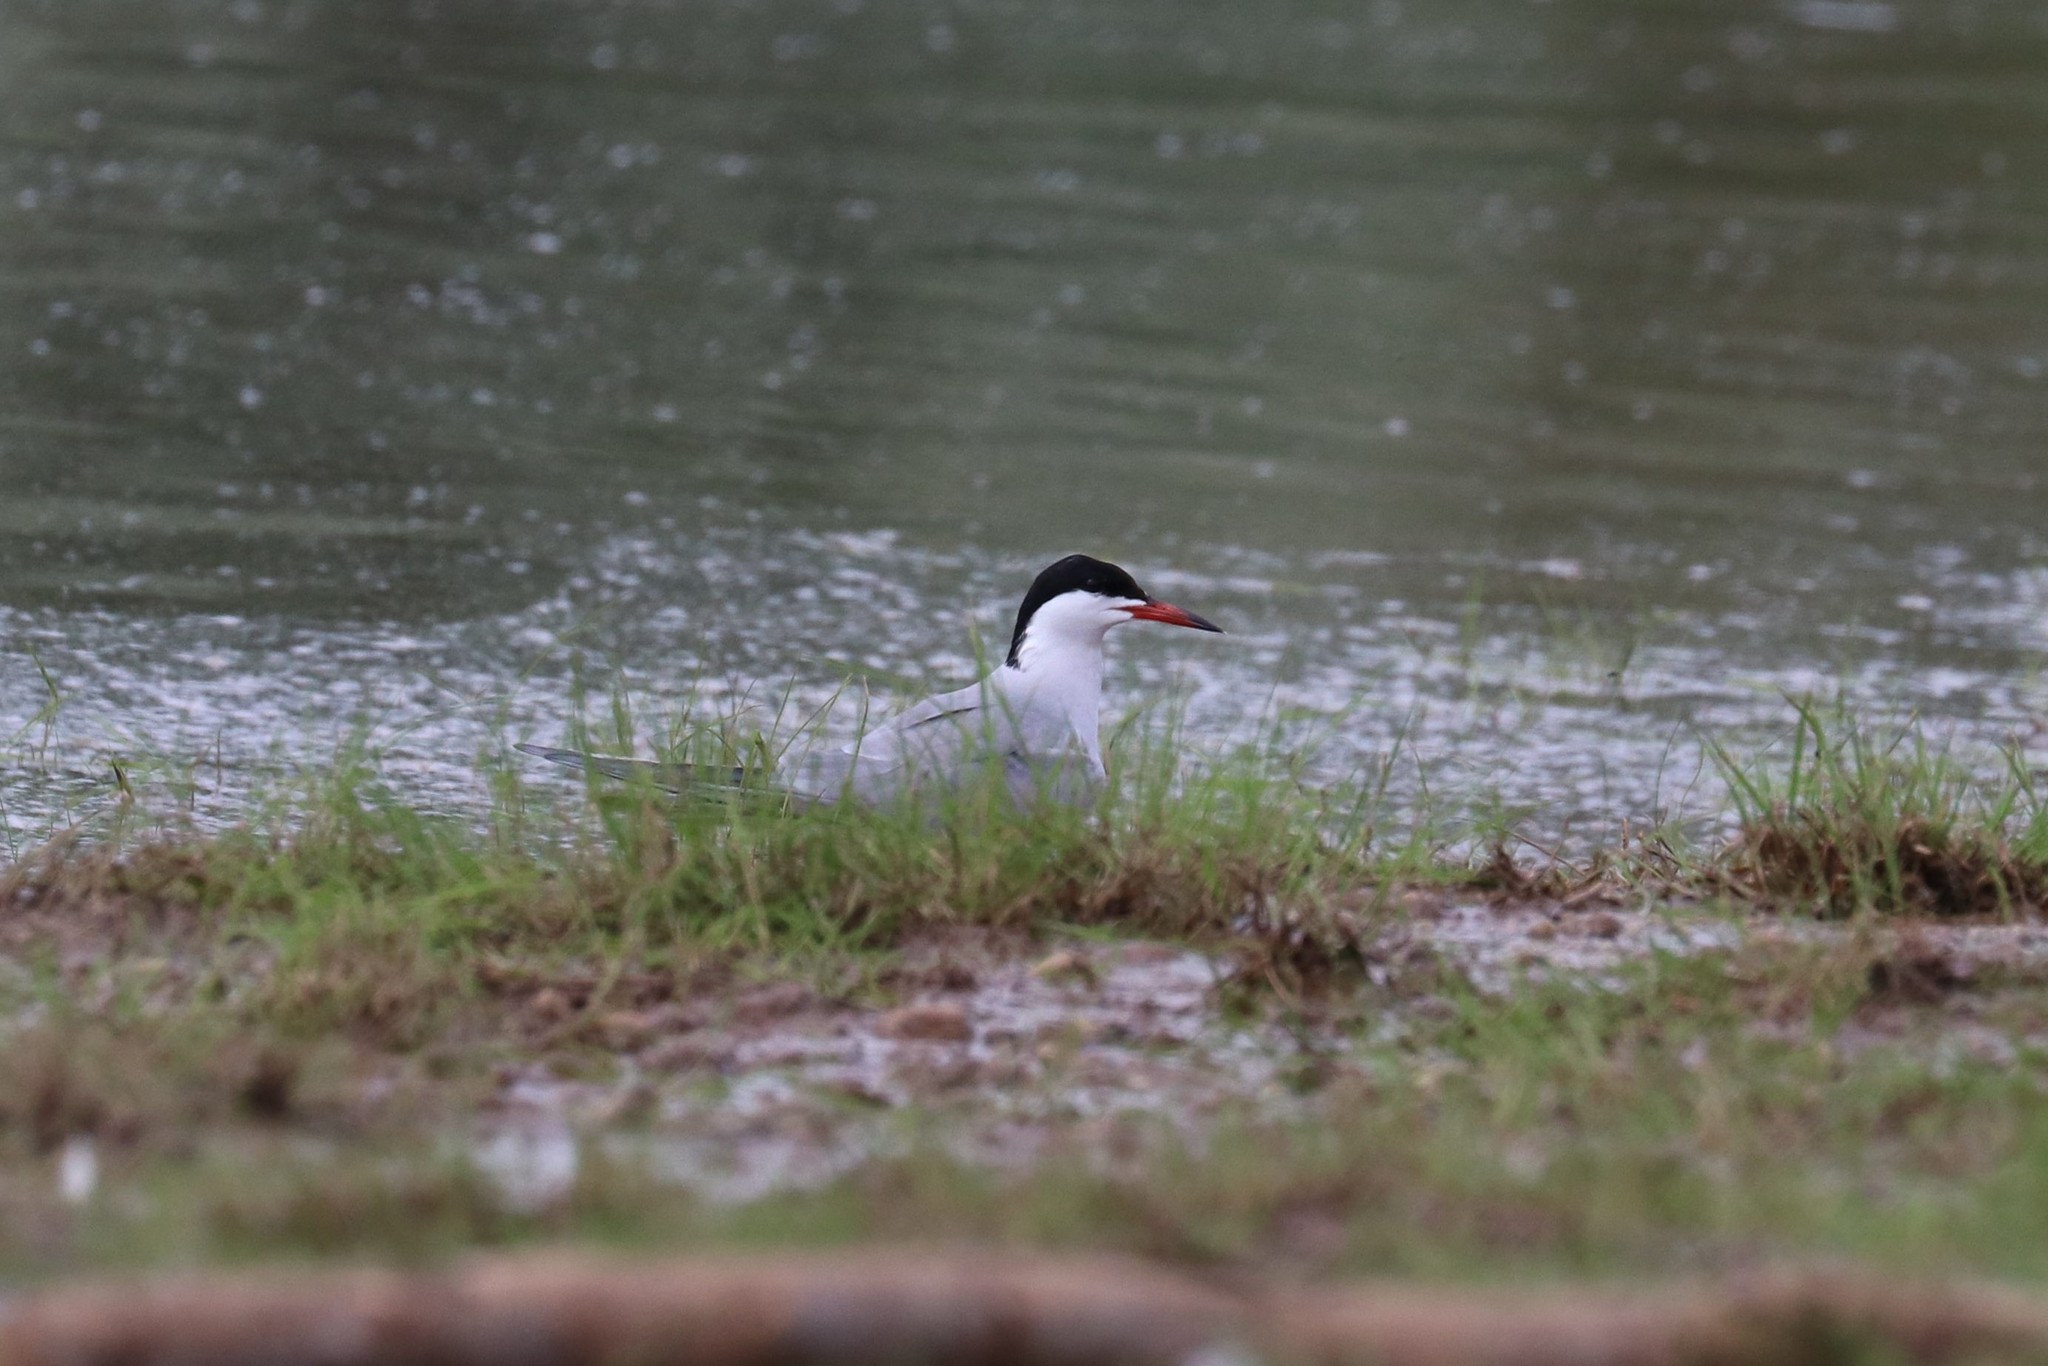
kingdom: Animalia
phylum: Chordata
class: Aves
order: Charadriiformes
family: Laridae
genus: Sterna
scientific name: Sterna hirundo
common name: Common tern
